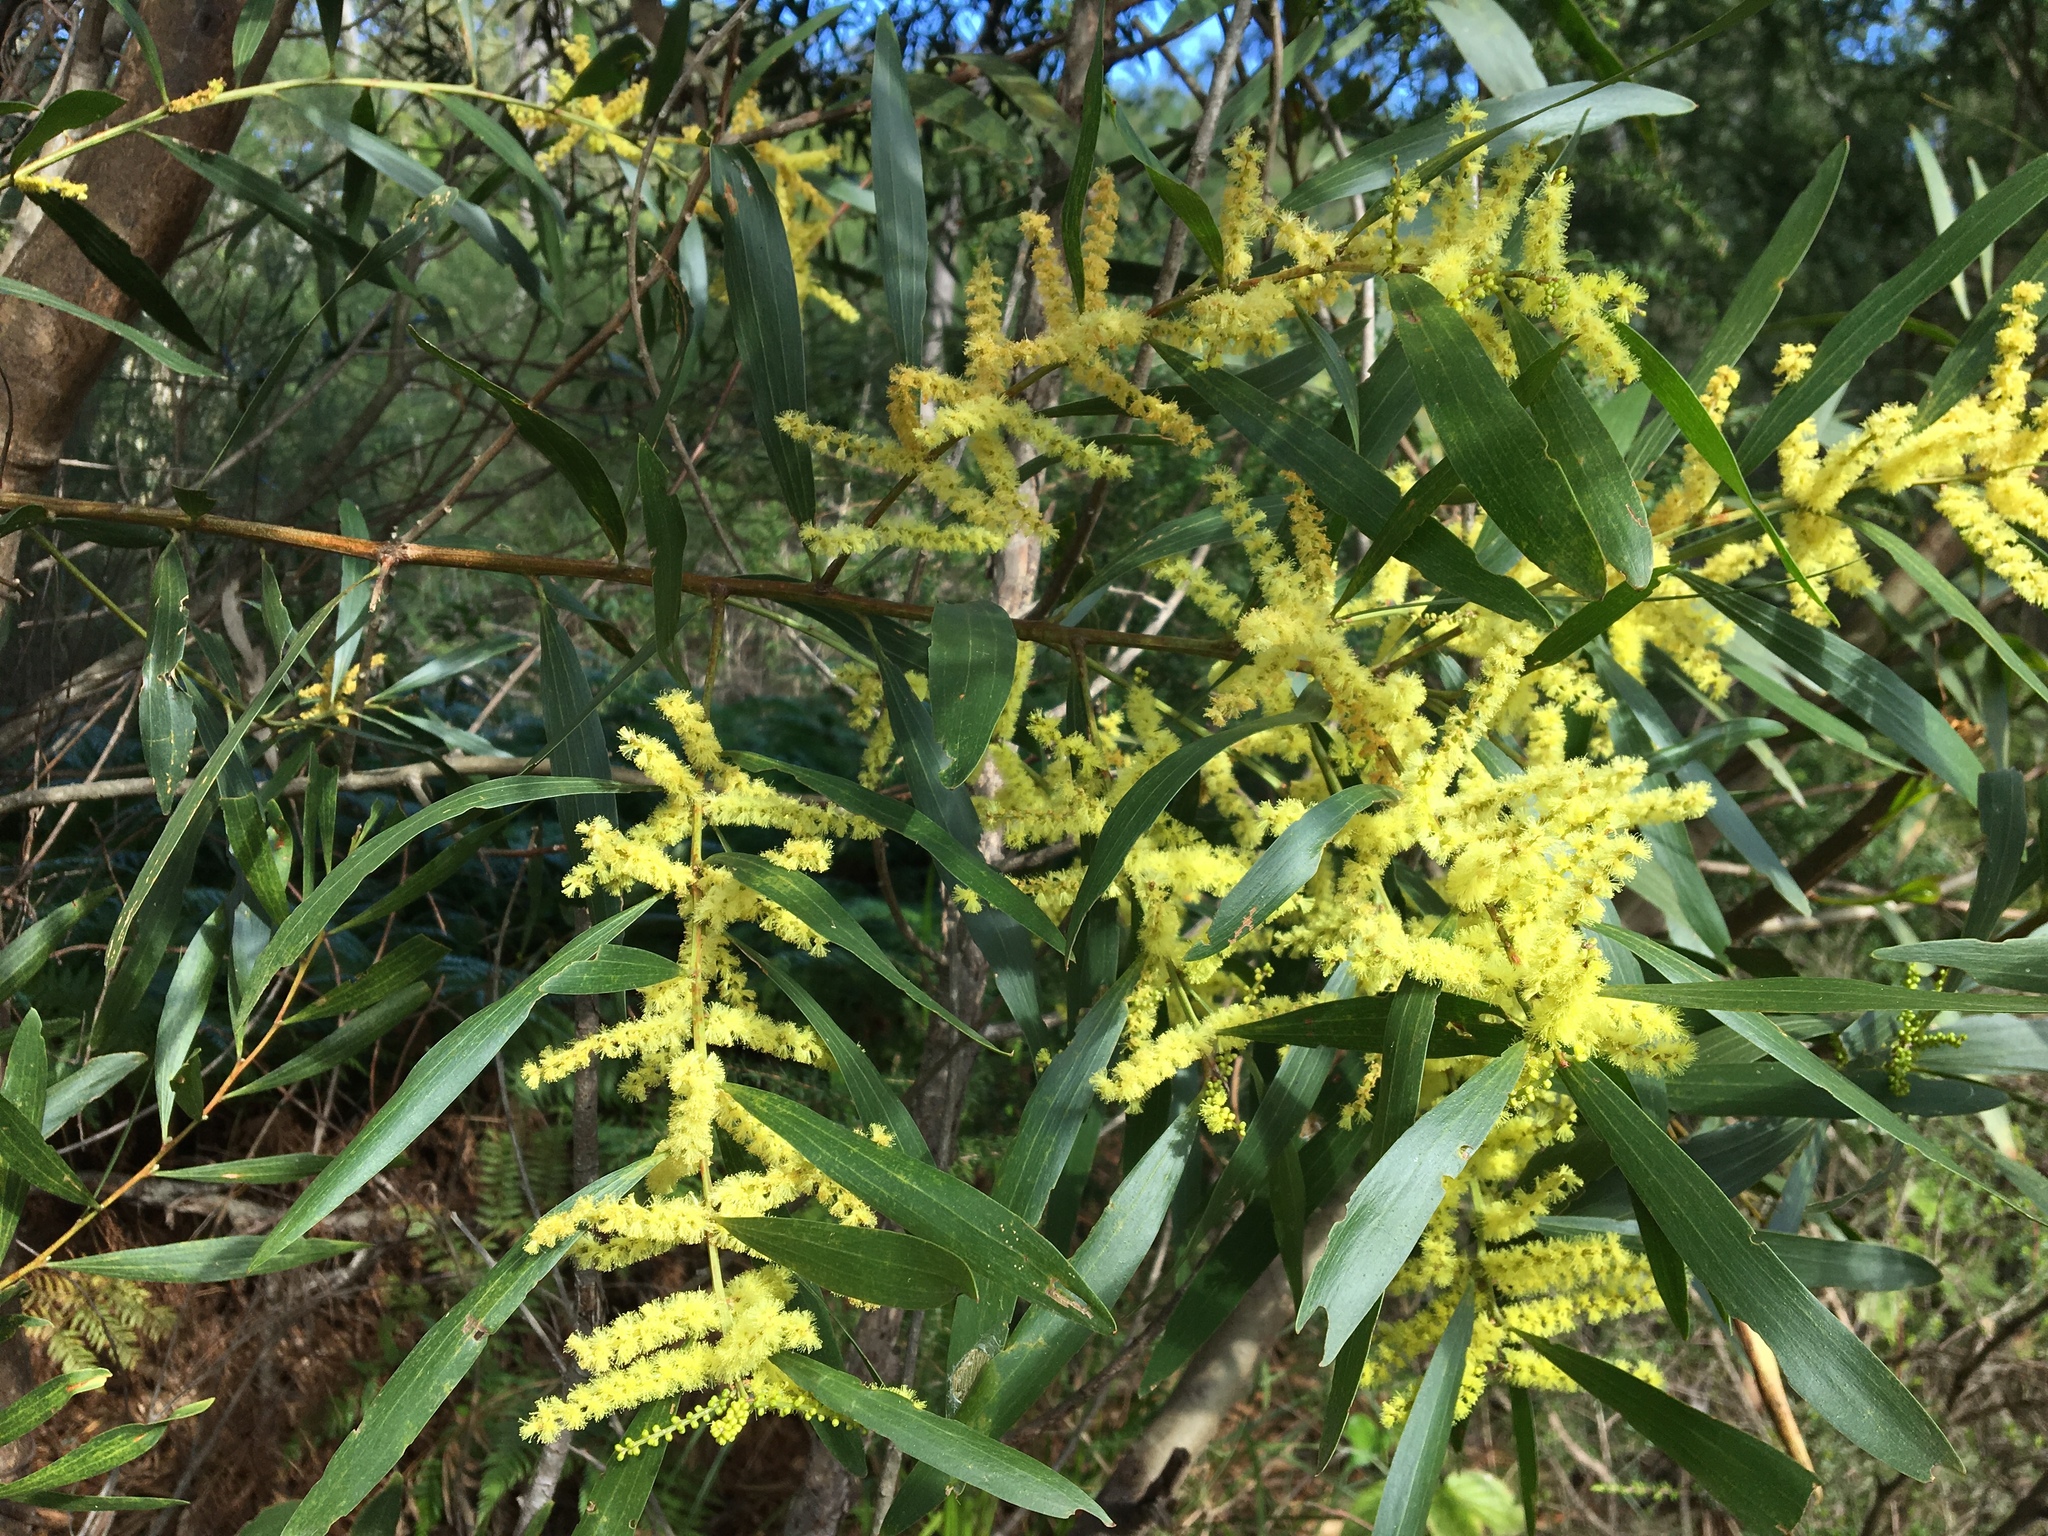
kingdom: Plantae
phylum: Tracheophyta
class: Magnoliopsida
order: Fabales
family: Fabaceae
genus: Acacia
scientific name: Acacia longifolia
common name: Sydney golden wattle
